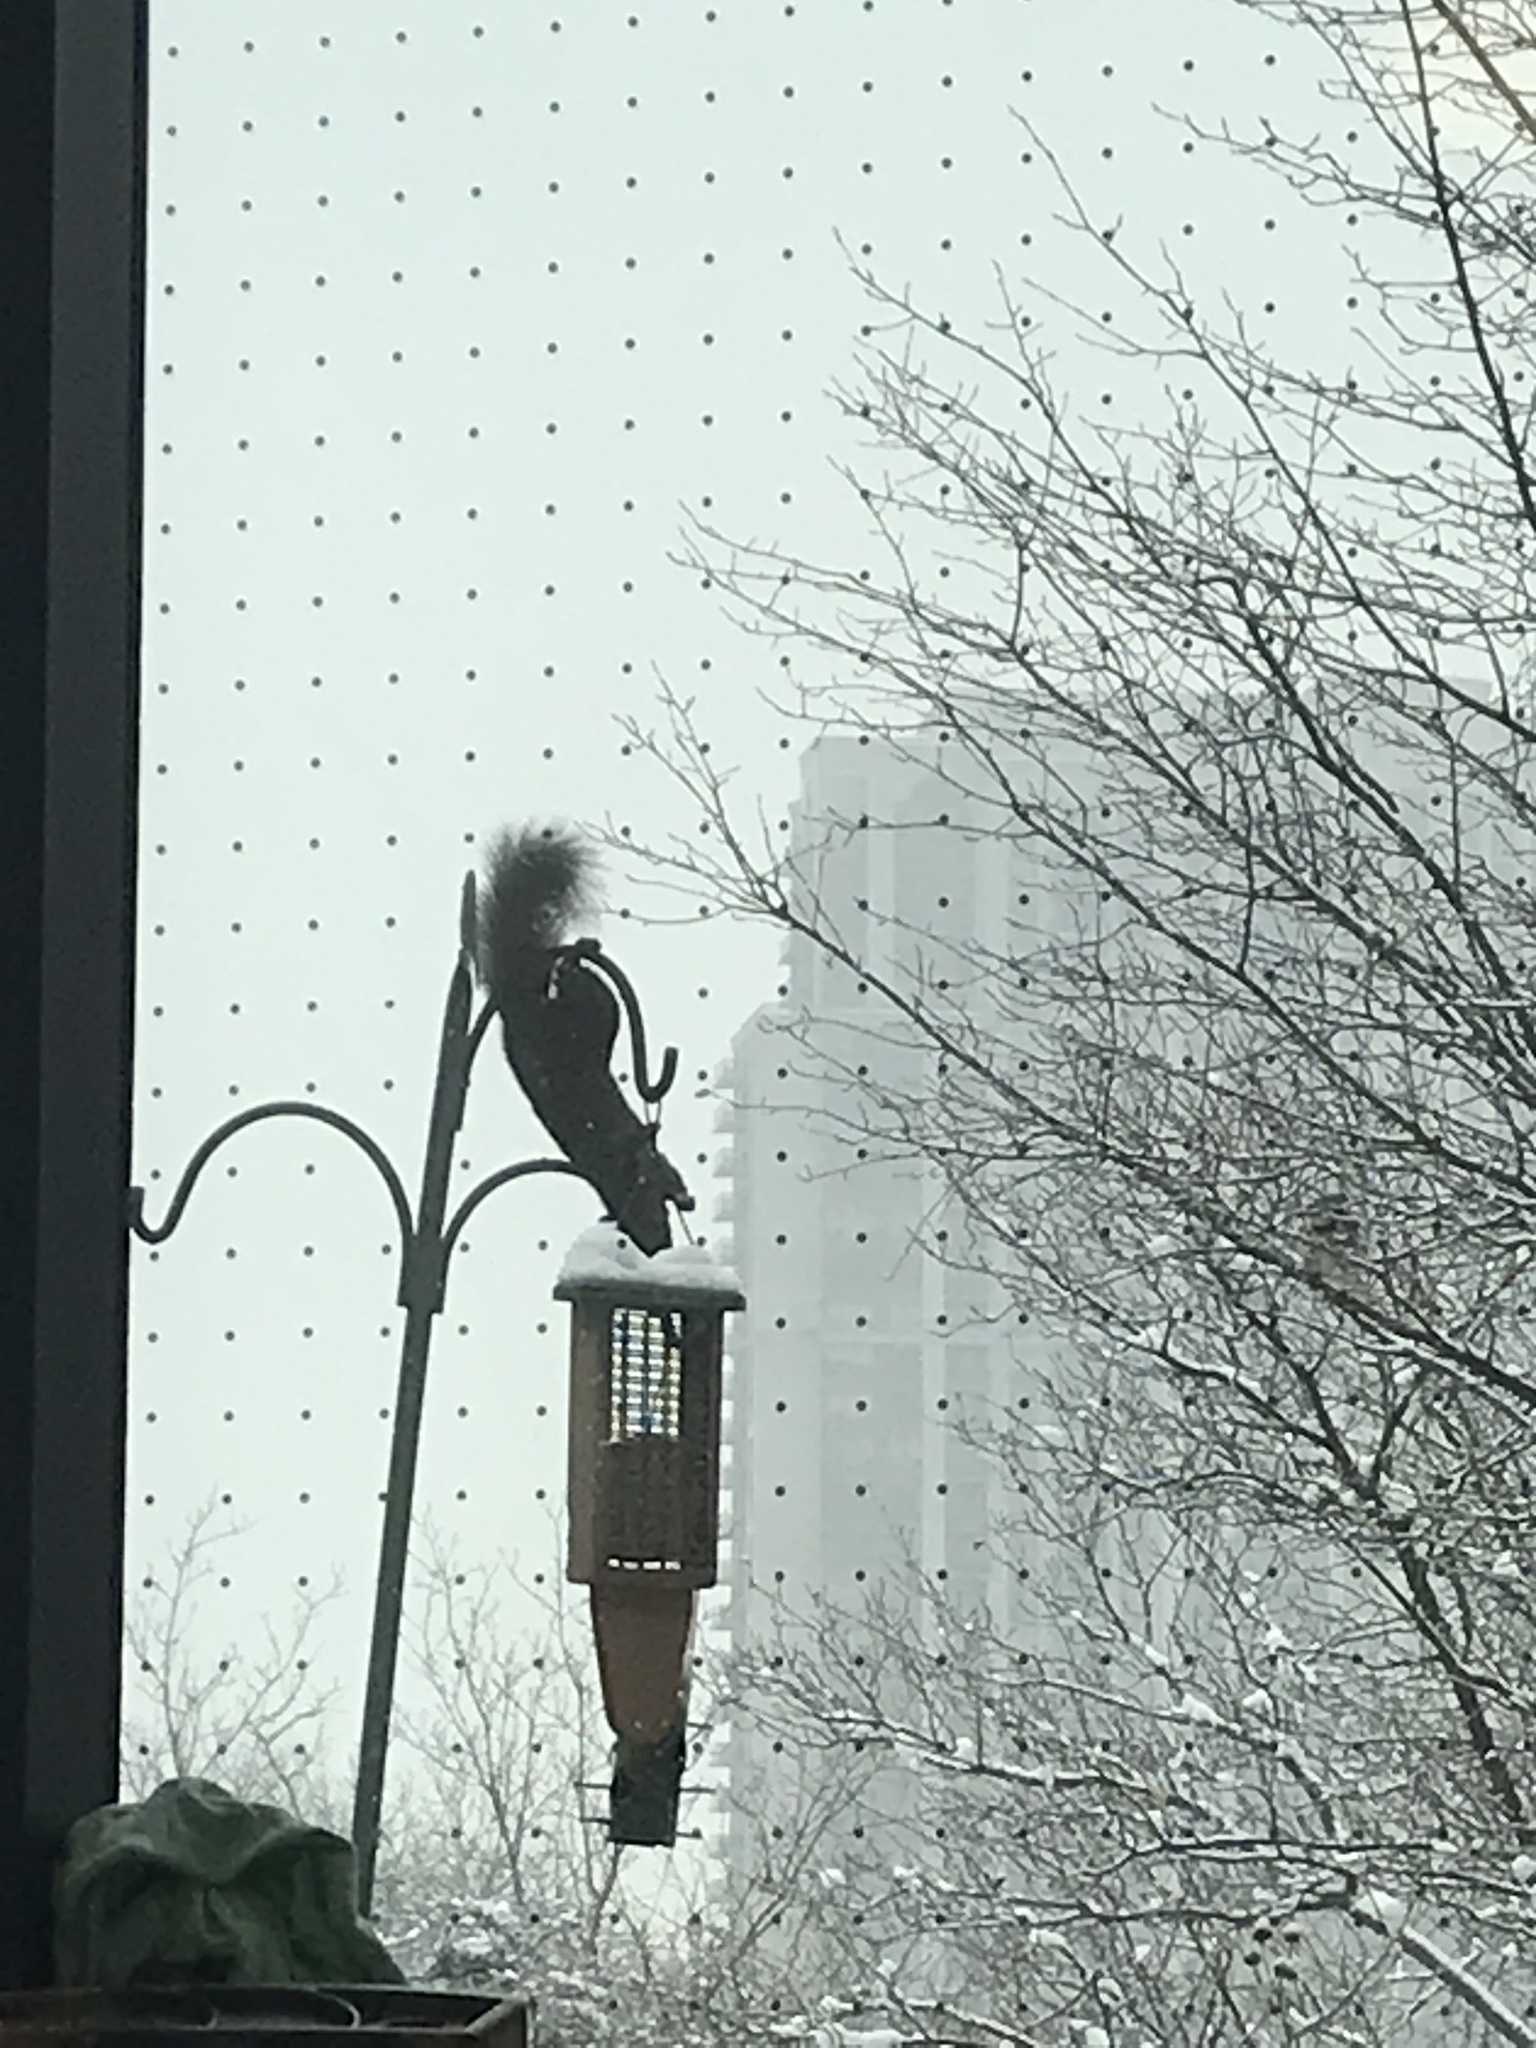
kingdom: Animalia
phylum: Chordata
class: Mammalia
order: Rodentia
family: Sciuridae
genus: Sciurus
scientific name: Sciurus carolinensis
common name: Eastern gray squirrel
